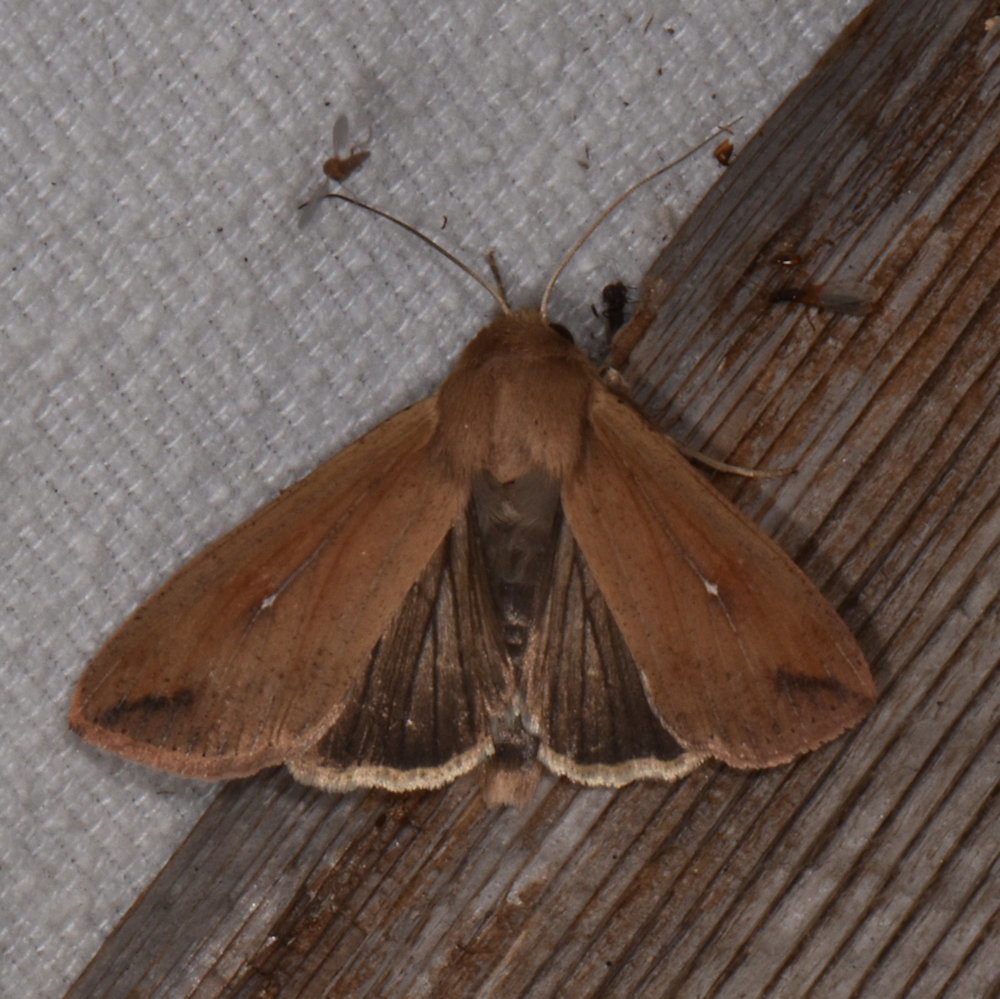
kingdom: Animalia
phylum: Arthropoda
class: Insecta
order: Lepidoptera
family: Noctuidae
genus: Mythimna
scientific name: Mythimna unipuncta
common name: White-speck
